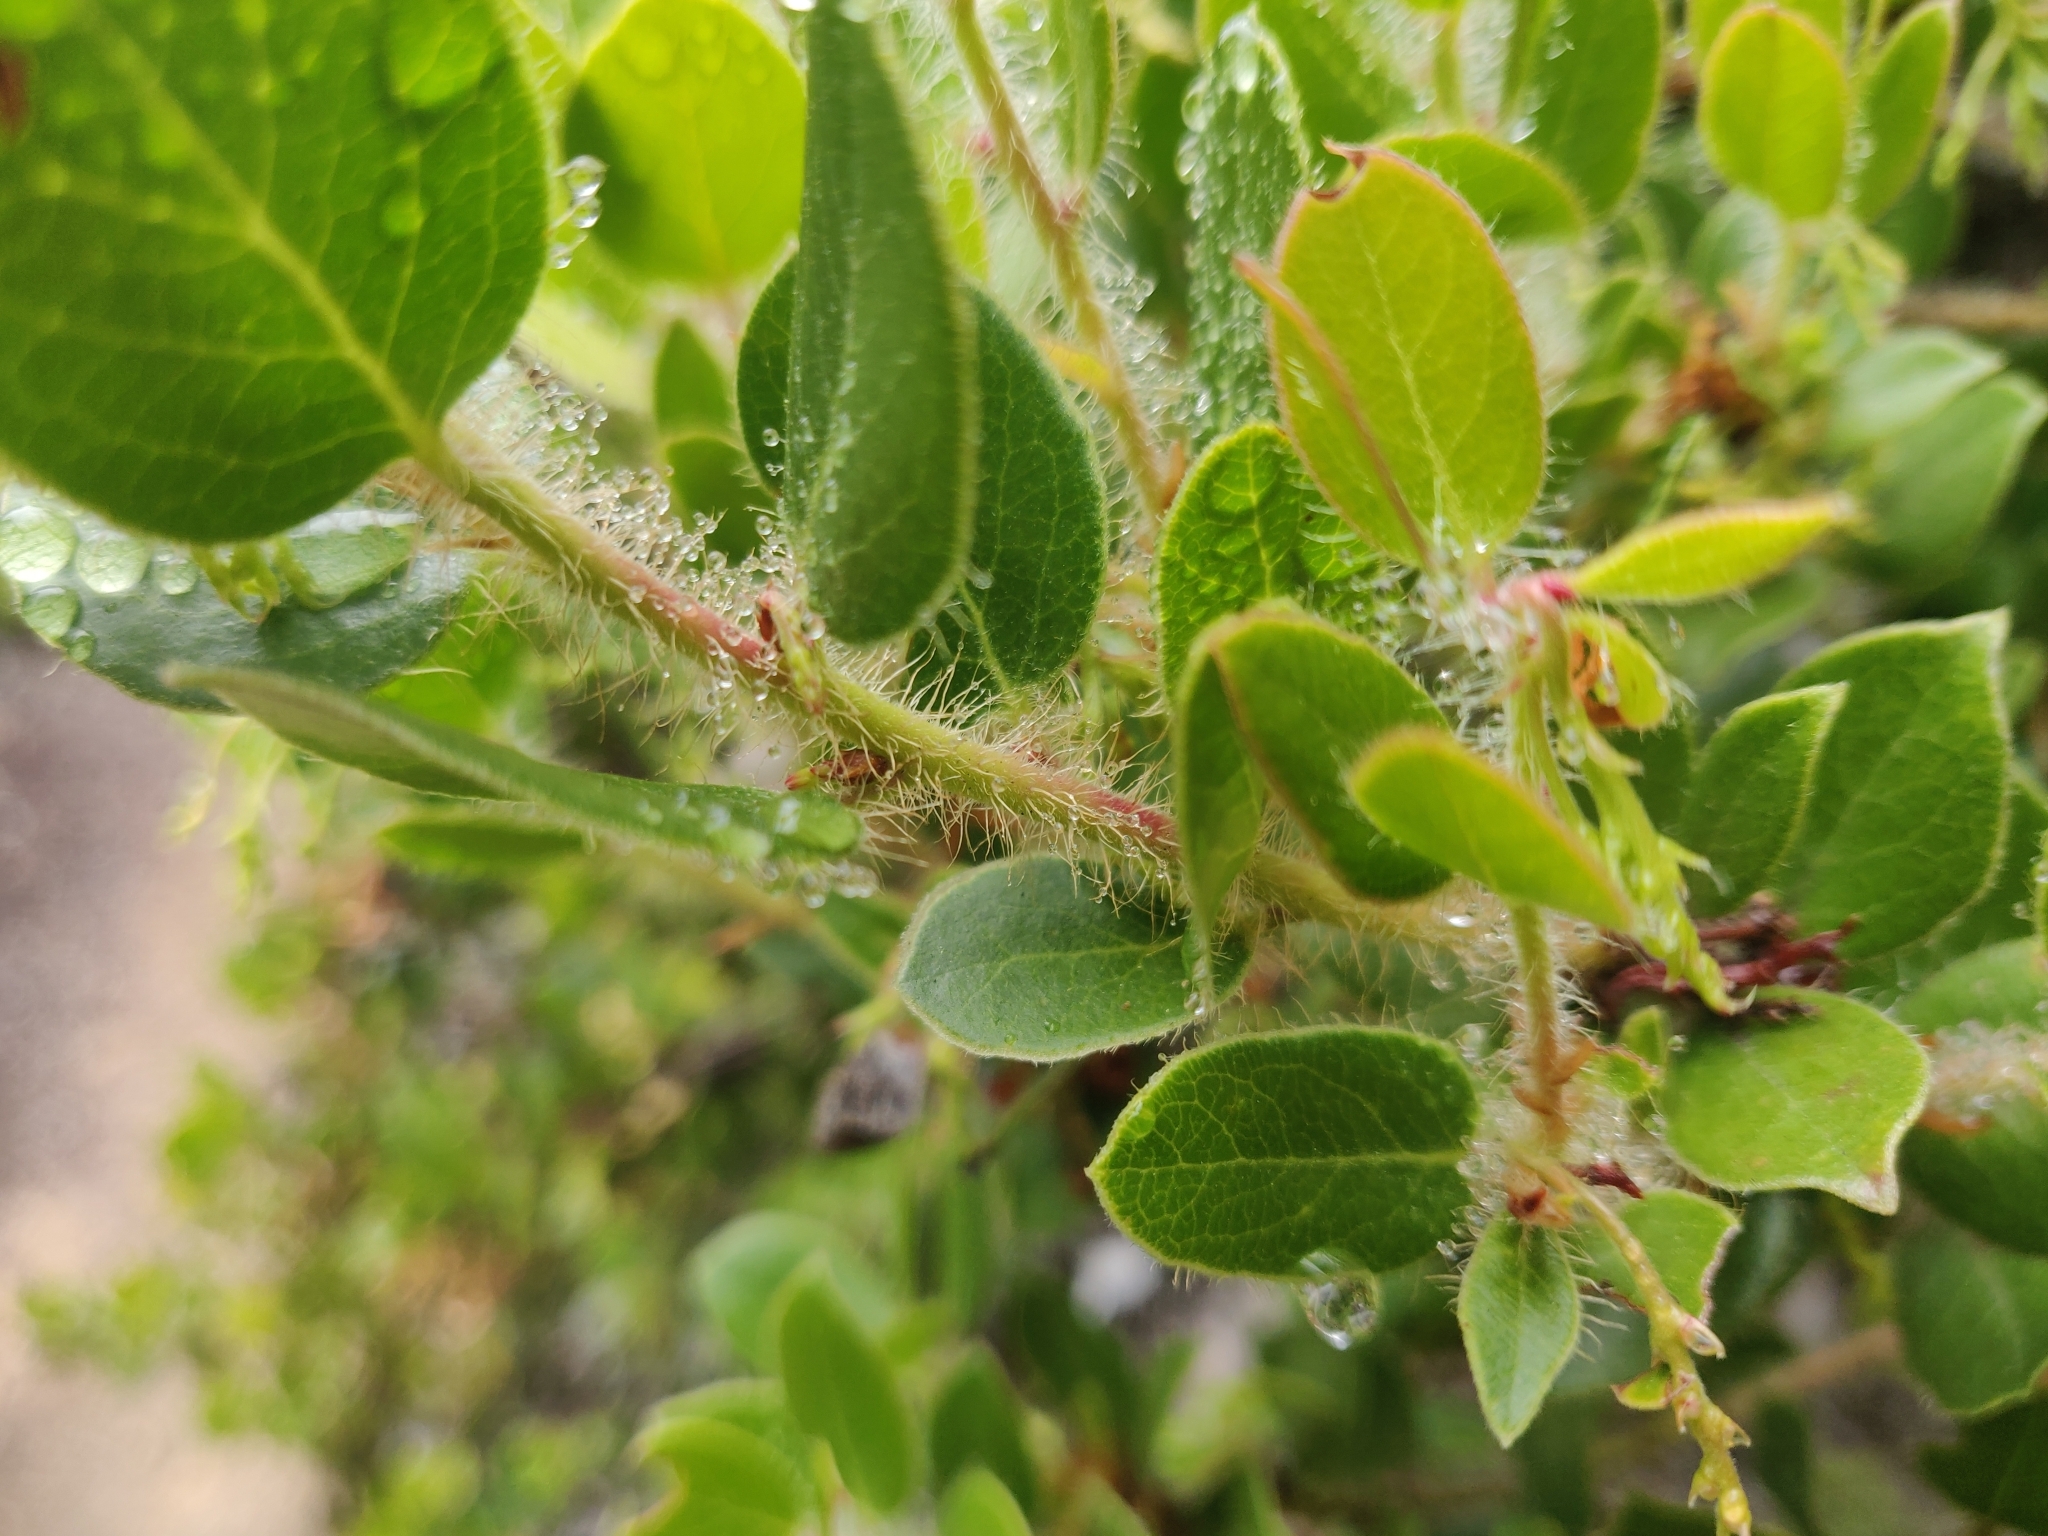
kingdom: Plantae
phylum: Tracheophyta
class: Magnoliopsida
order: Ericales
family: Ericaceae
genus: Arctostaphylos
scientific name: Arctostaphylos nummularia
